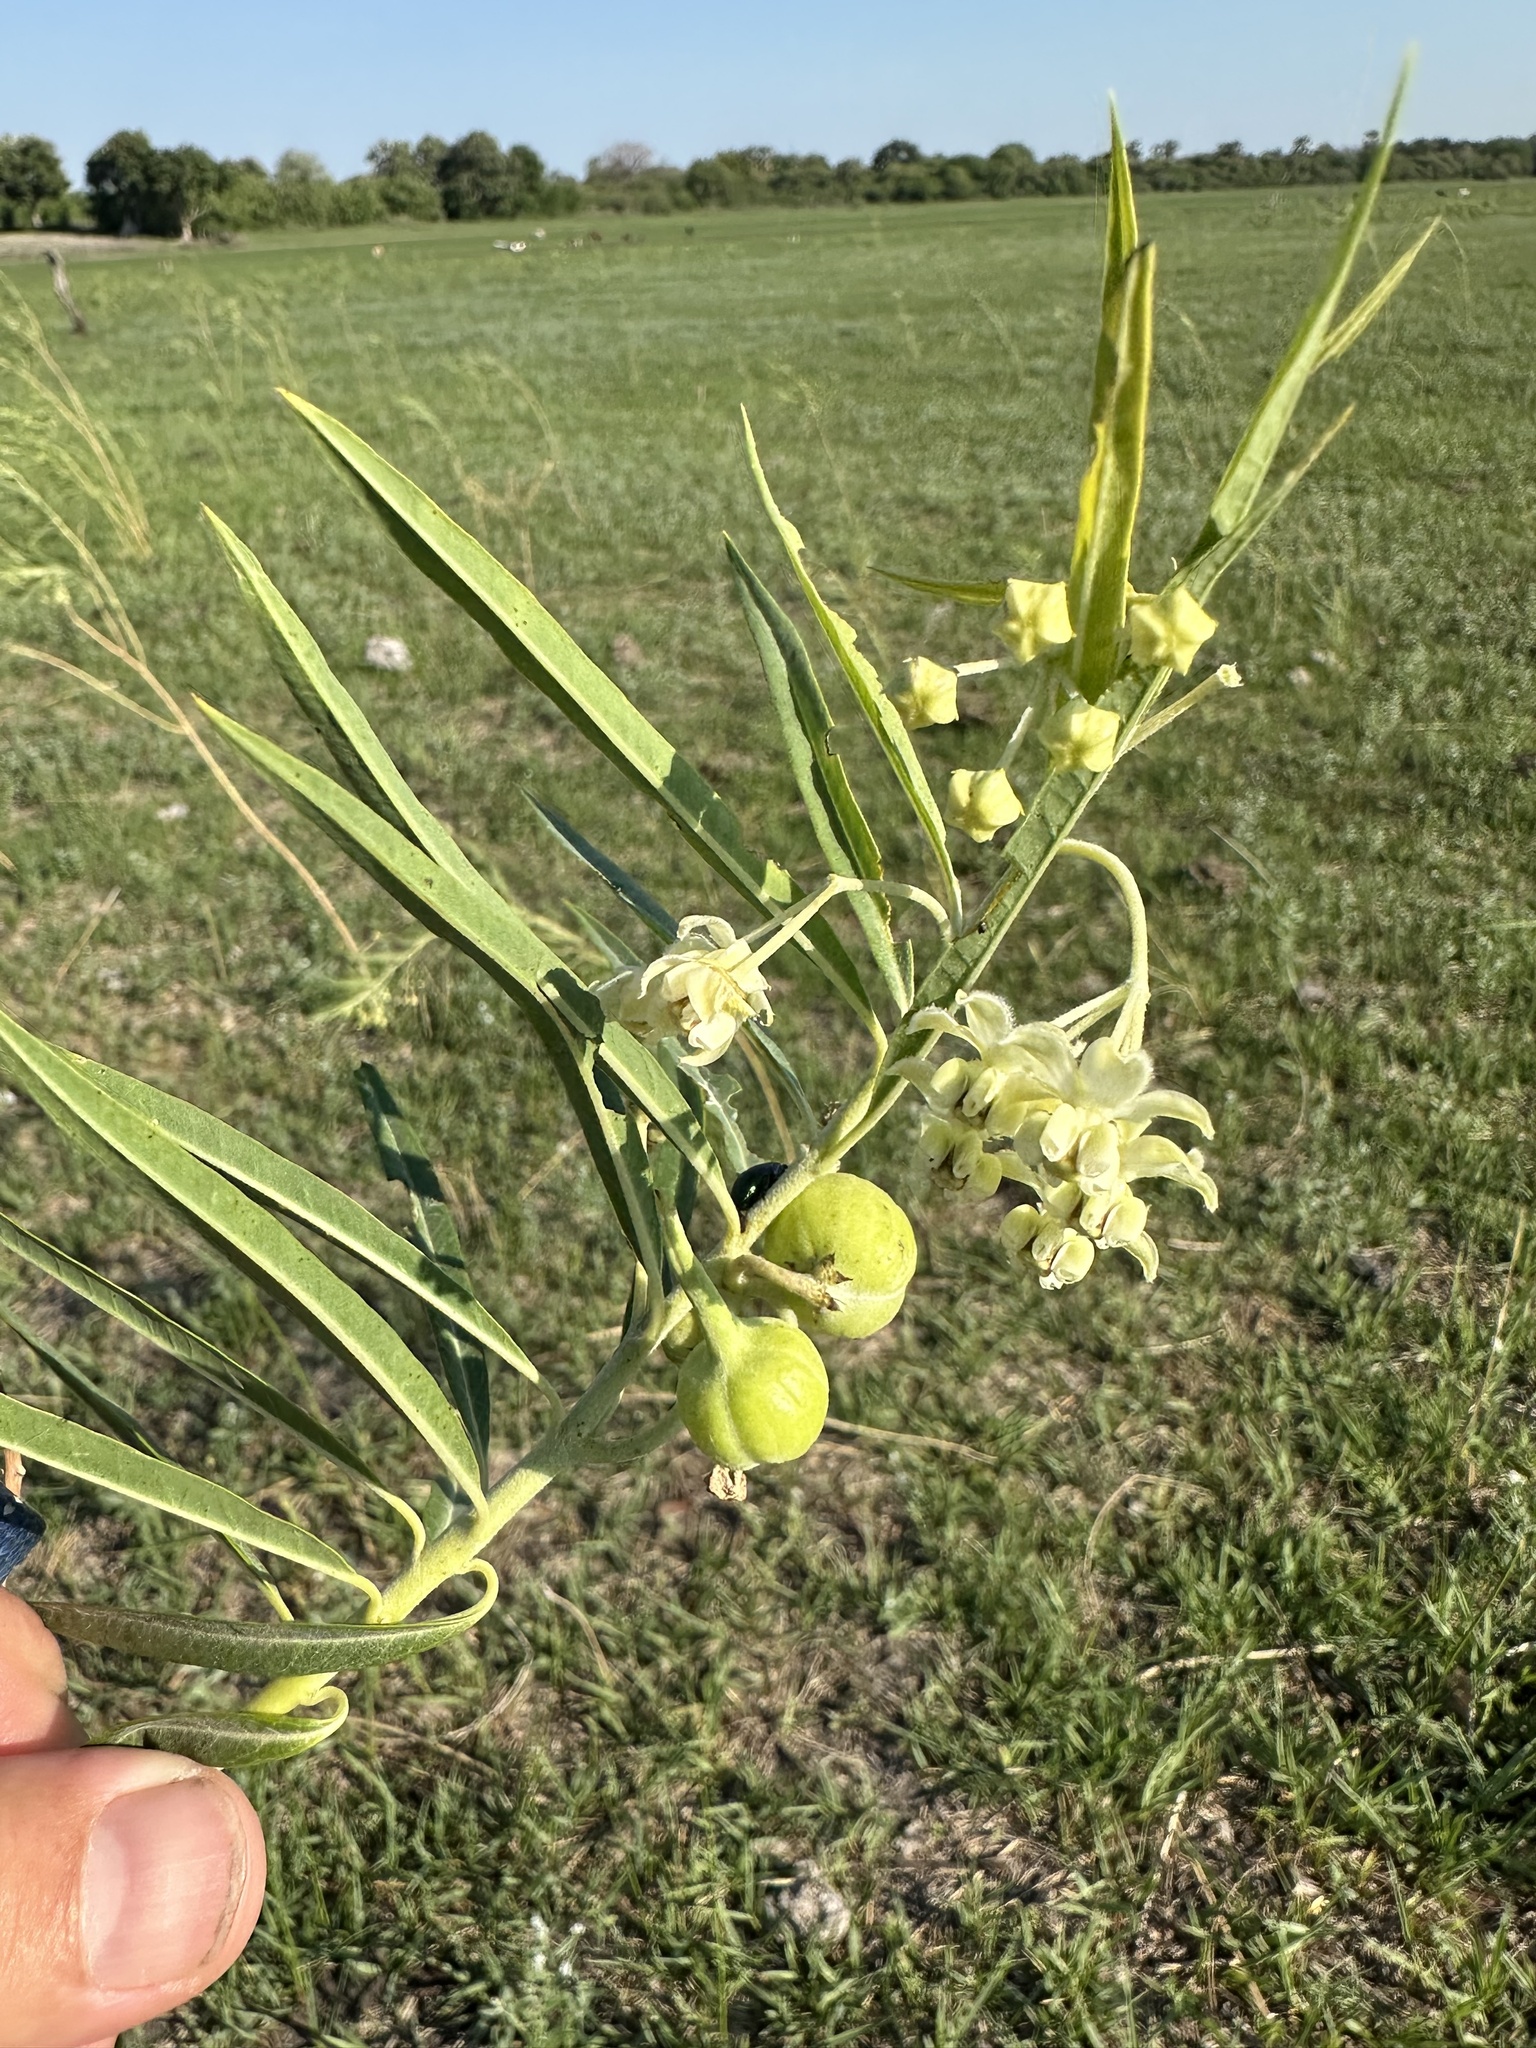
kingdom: Plantae
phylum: Tracheophyta
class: Magnoliopsida
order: Gentianales
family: Apocynaceae
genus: Gomphocarpus
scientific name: Gomphocarpus fruticosus
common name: Milkweed
